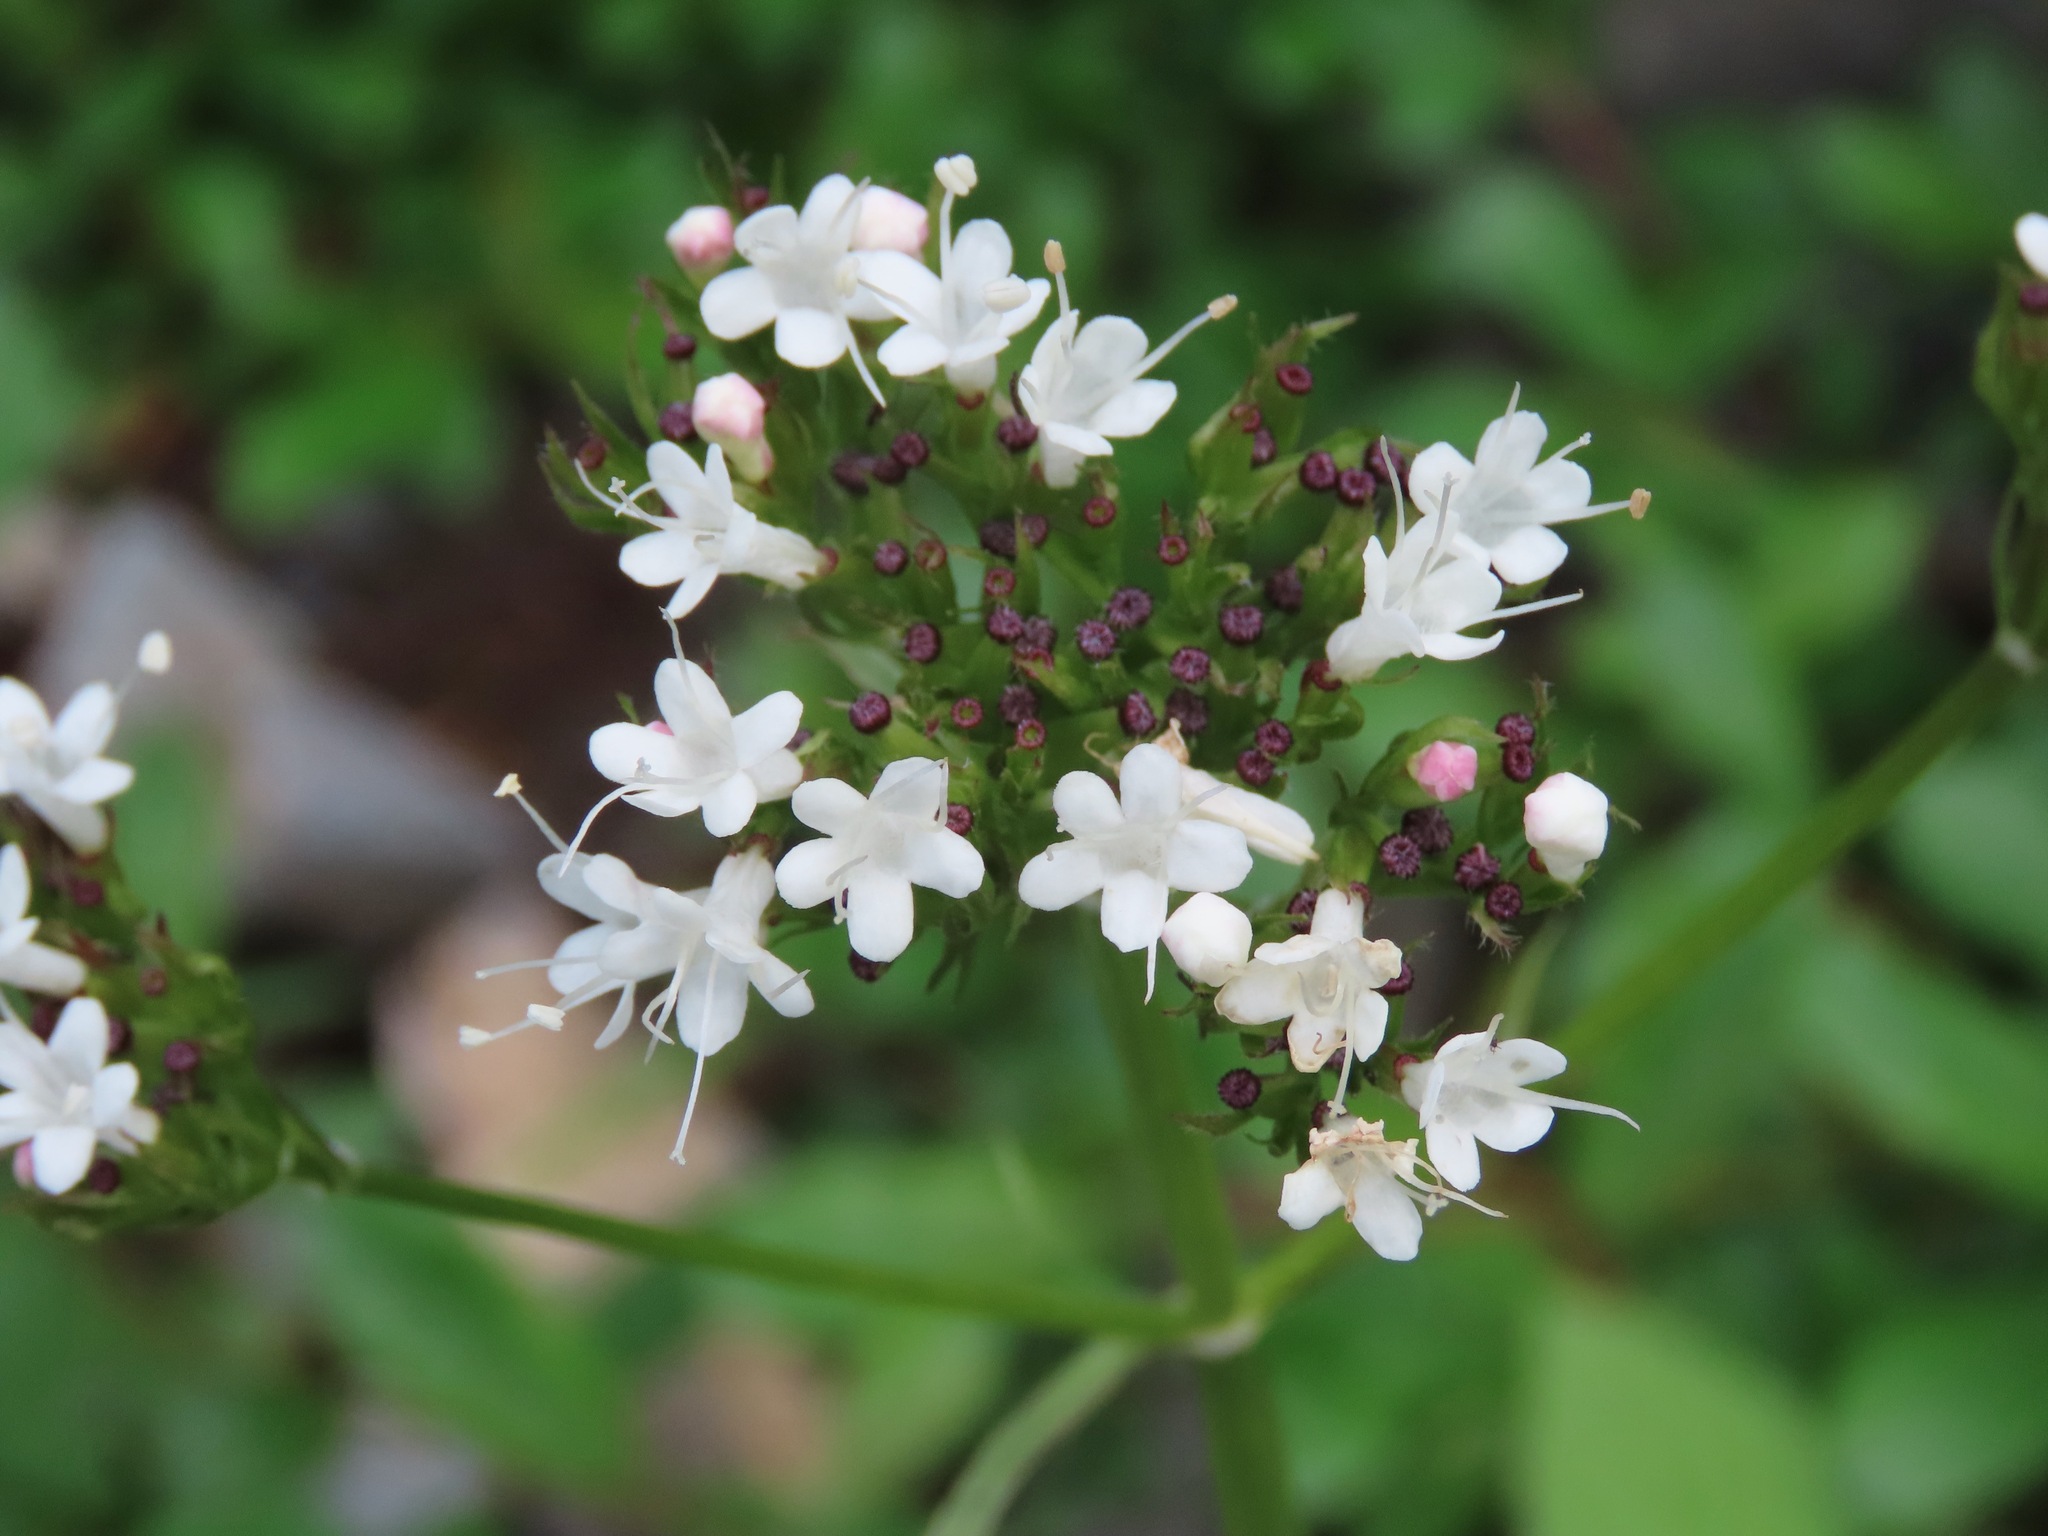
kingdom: Plantae
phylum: Tracheophyta
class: Magnoliopsida
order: Dipsacales
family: Caprifoliaceae
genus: Valeriana
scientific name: Valeriana sitchensis
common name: Pacific valerian
